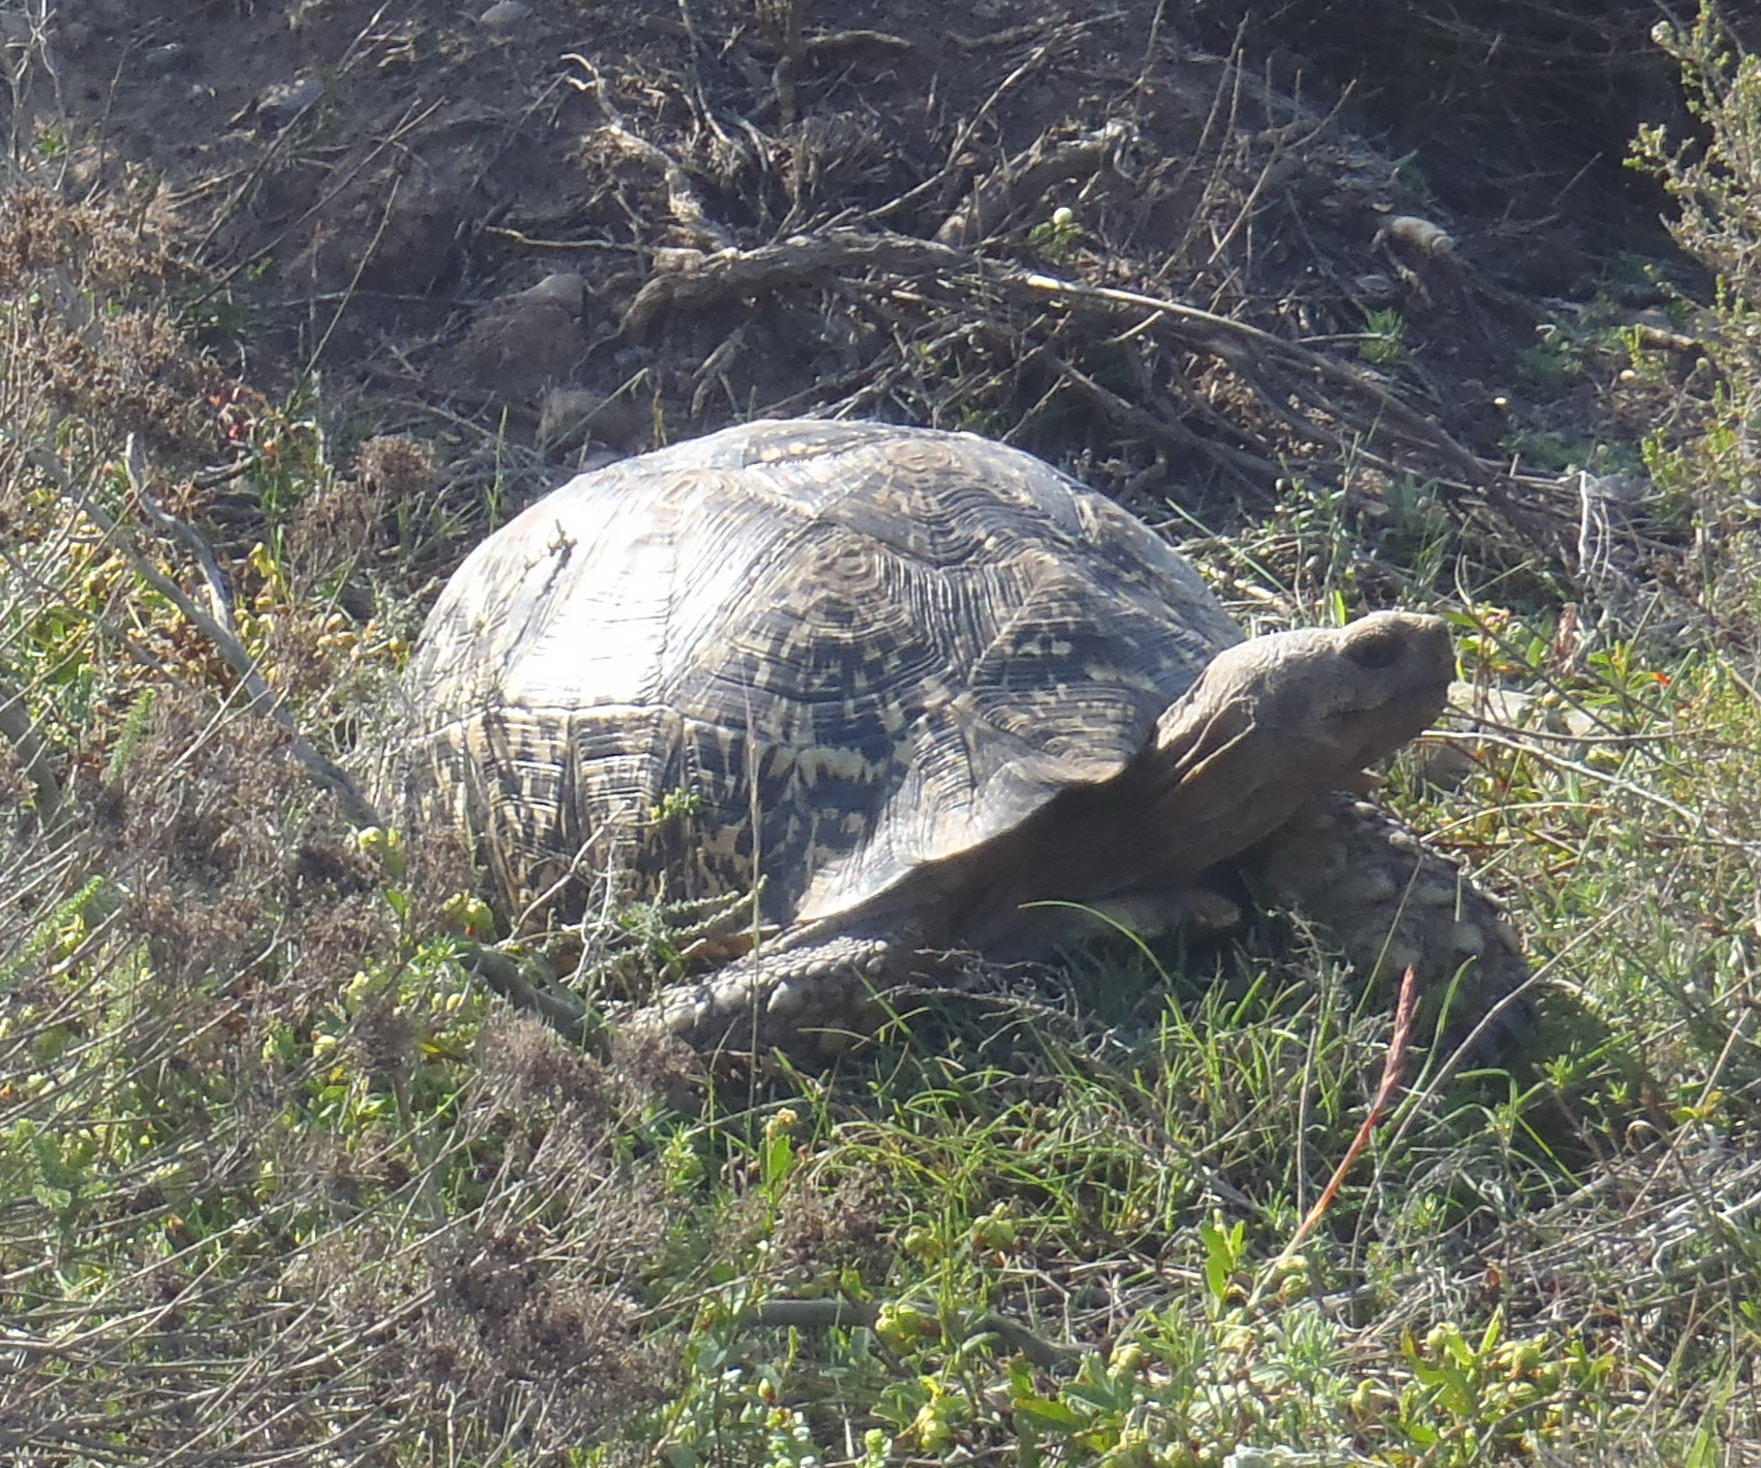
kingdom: Animalia
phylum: Chordata
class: Testudines
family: Testudinidae
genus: Stigmochelys
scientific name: Stigmochelys pardalis
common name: Leopard tortoise
